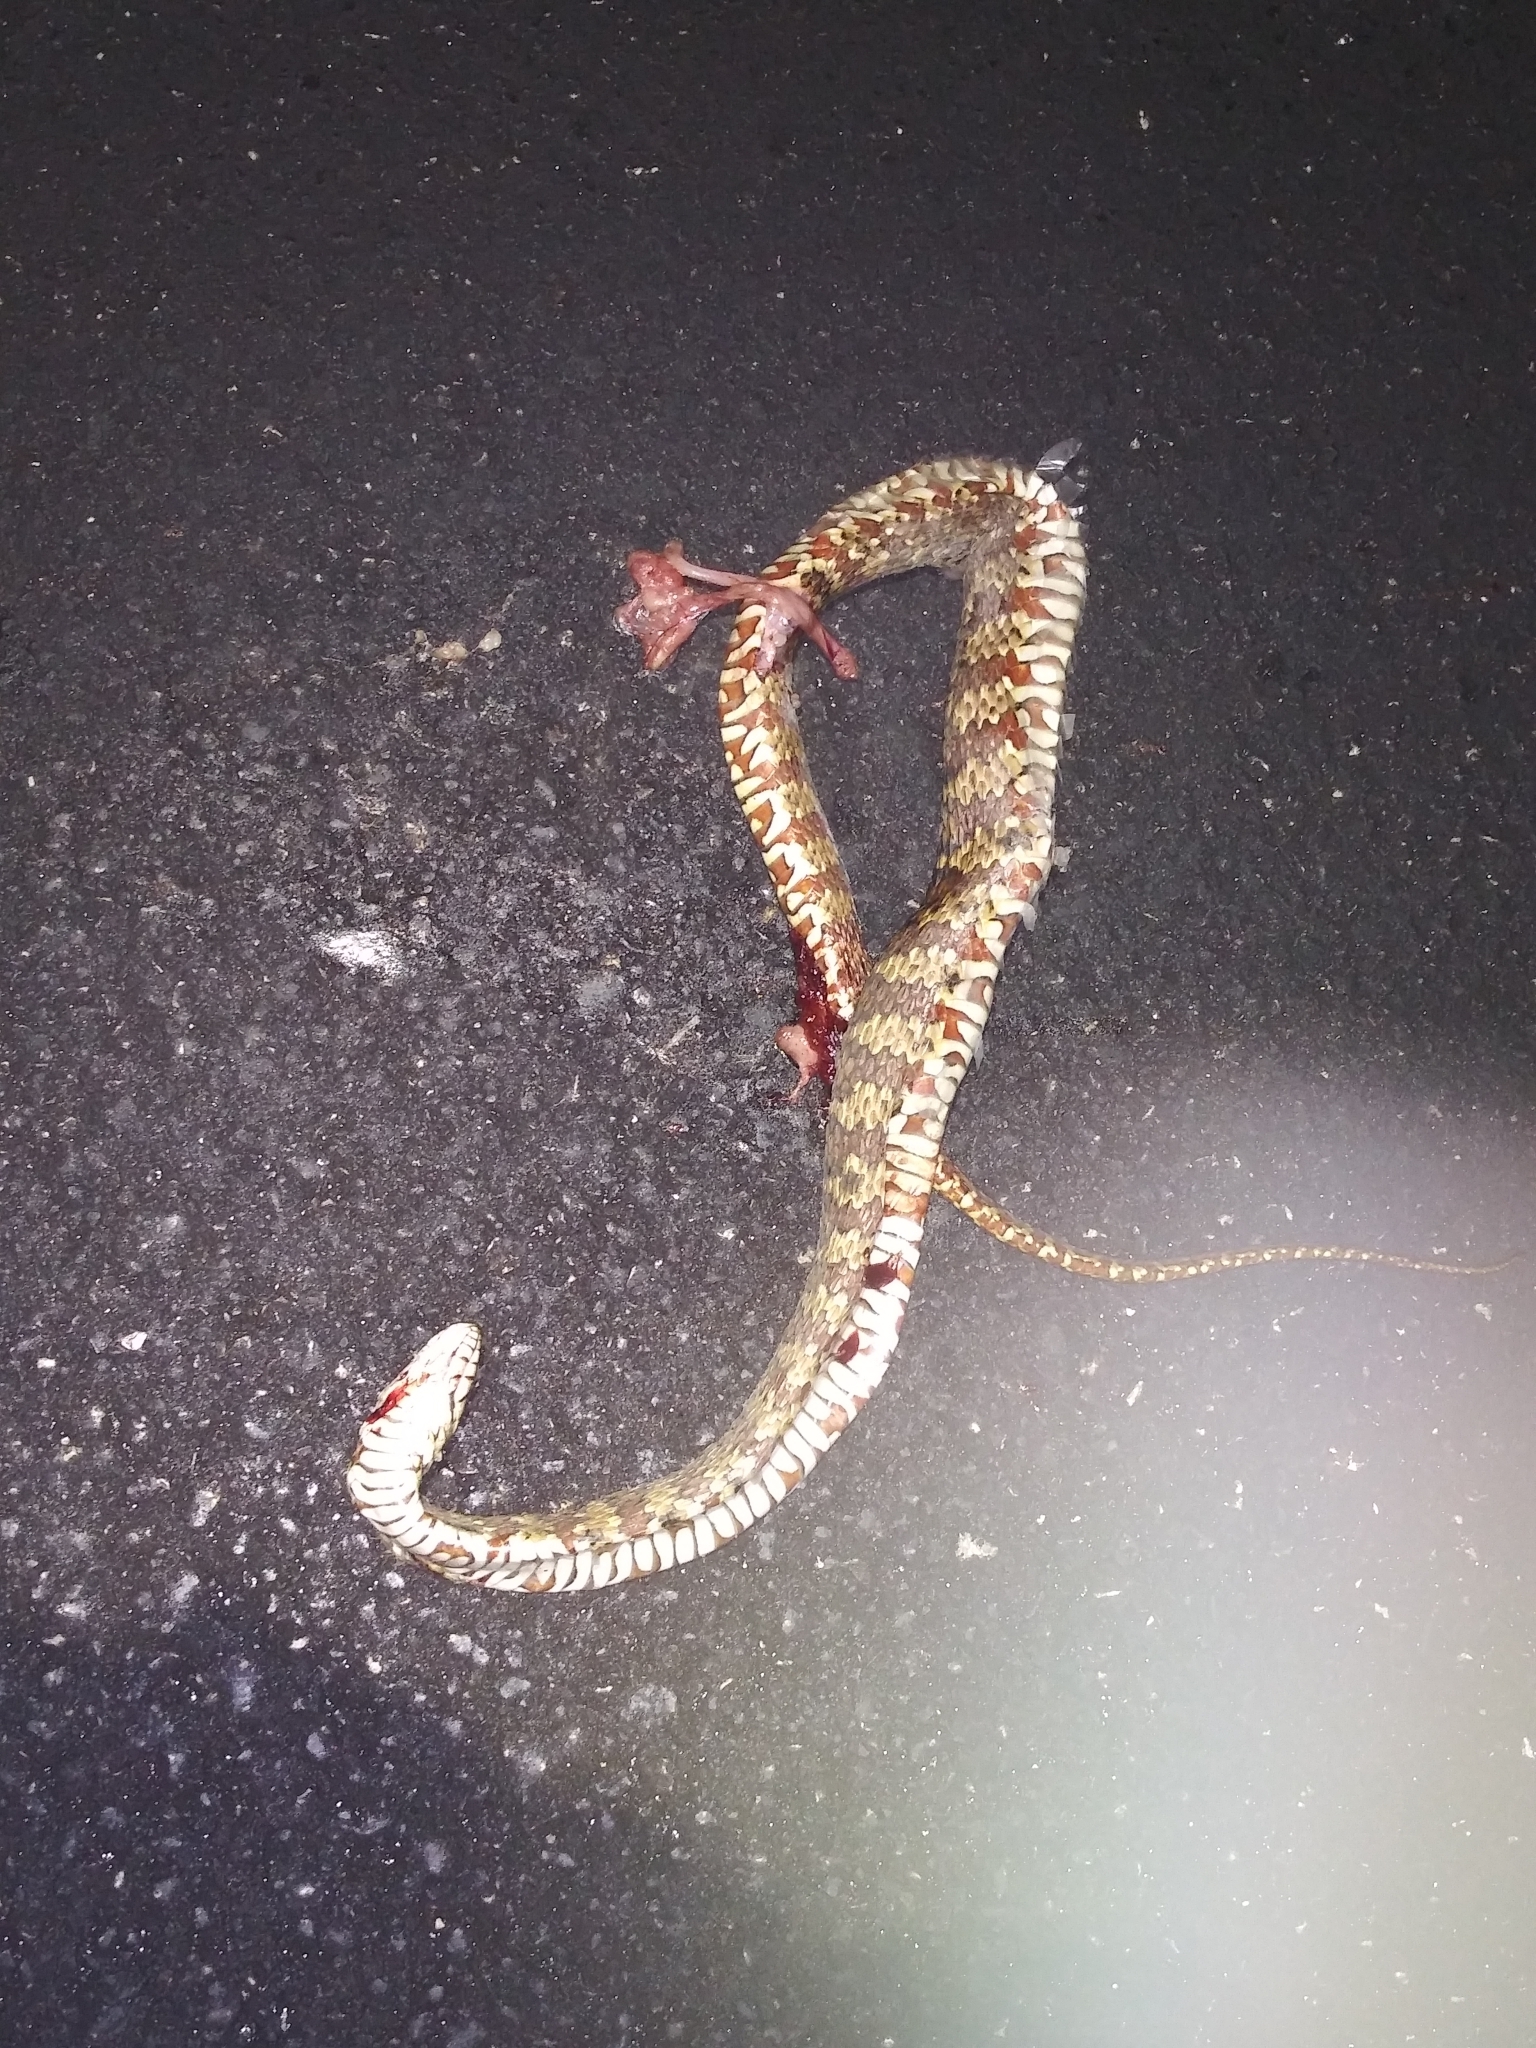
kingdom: Animalia
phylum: Chordata
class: Squamata
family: Colubridae
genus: Nerodia
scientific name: Nerodia fasciata
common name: Southern water snake
